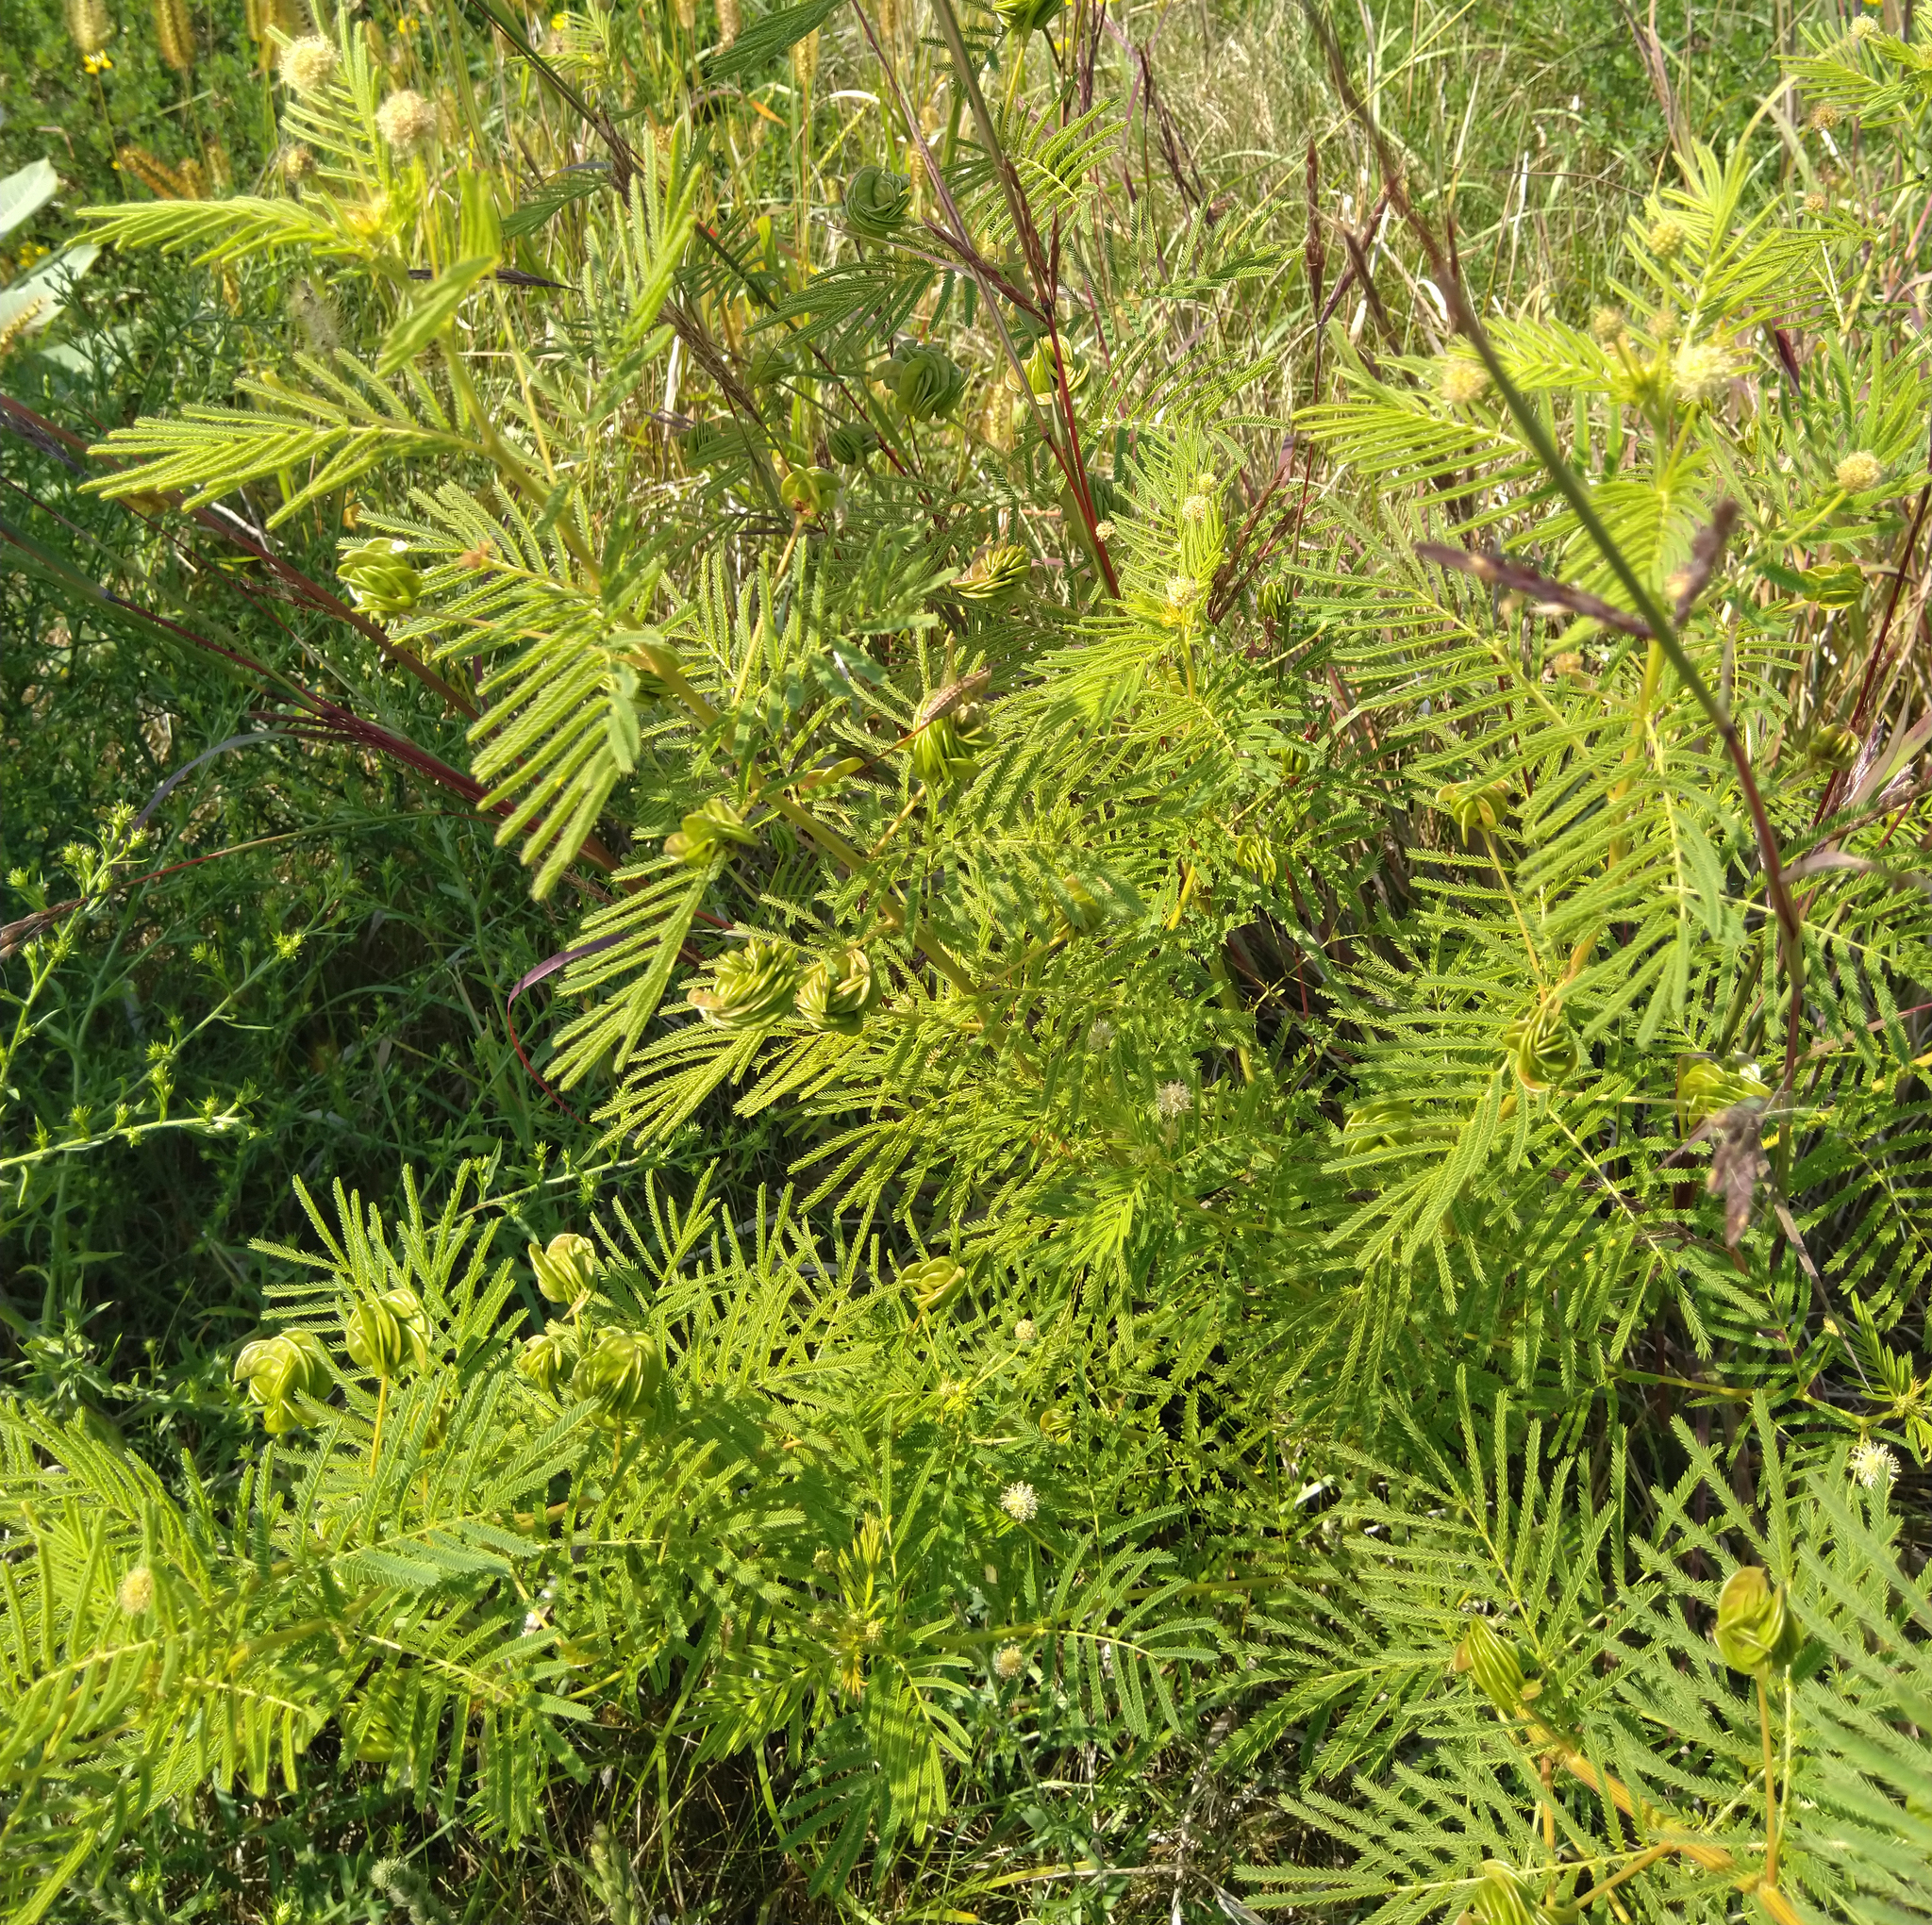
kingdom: Plantae
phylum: Tracheophyta
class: Magnoliopsida
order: Fabales
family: Fabaceae
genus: Desmanthus
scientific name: Desmanthus illinoensis
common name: Illinois bundle-flower
